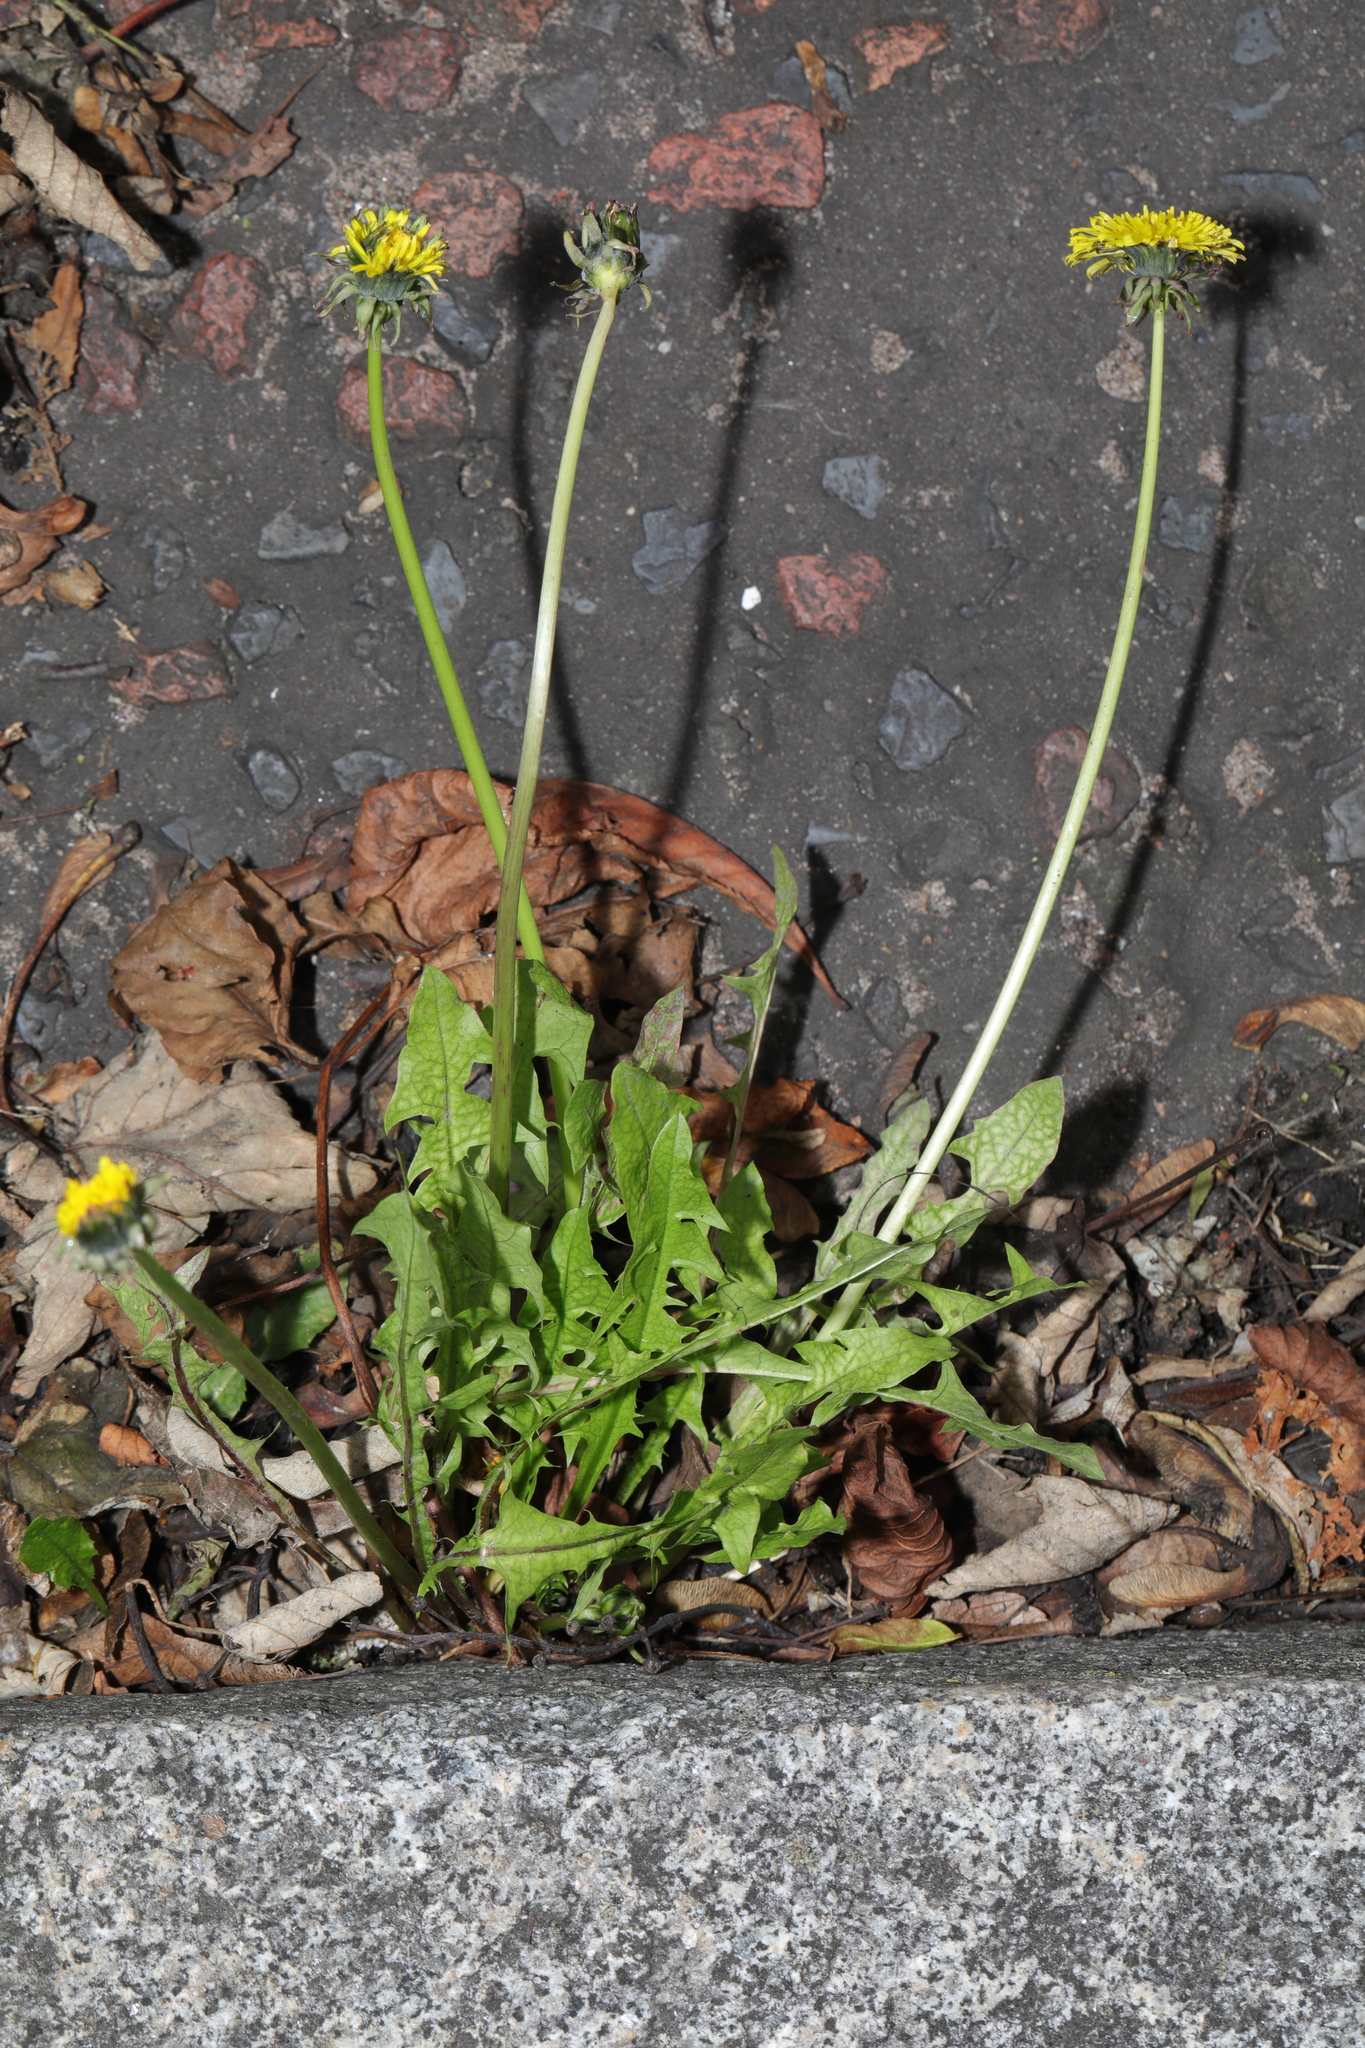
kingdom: Plantae
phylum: Tracheophyta
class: Magnoliopsida
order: Asterales
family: Asteraceae
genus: Taraxacum
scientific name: Taraxacum officinale
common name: Common dandelion
